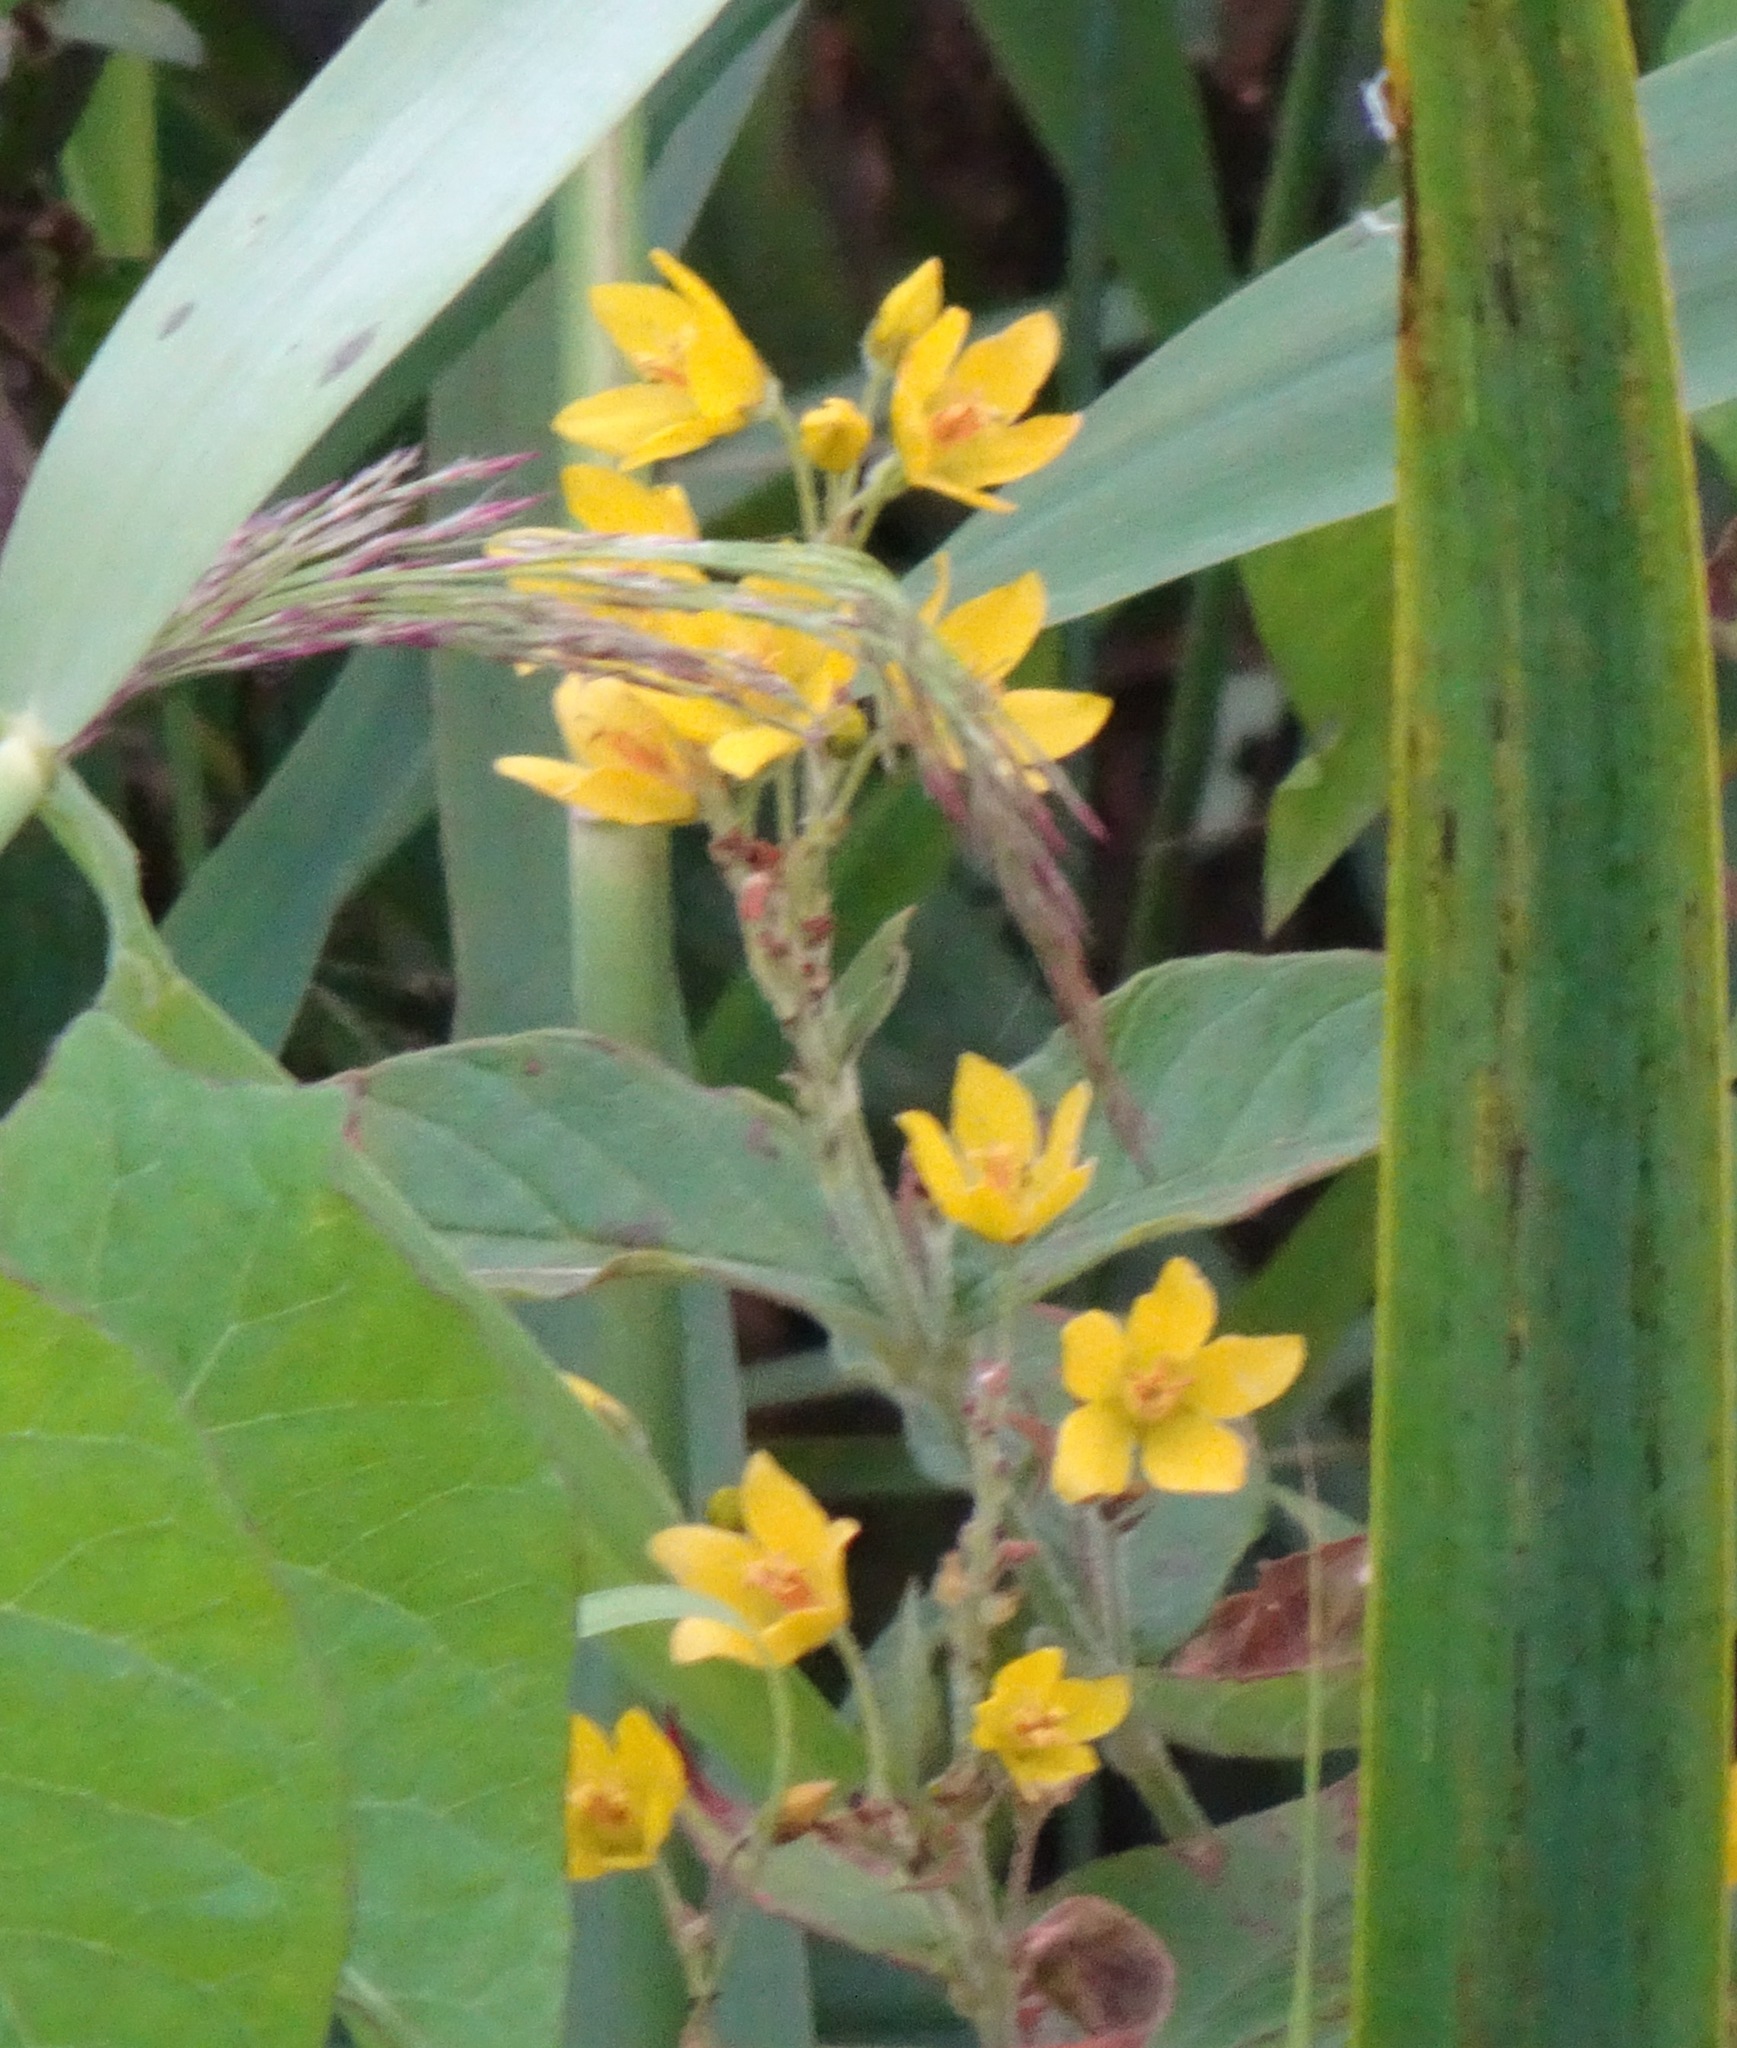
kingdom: Plantae
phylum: Tracheophyta
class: Magnoliopsida
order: Ericales
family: Primulaceae
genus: Lysimachia
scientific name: Lysimachia vulgaris
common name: Yellow loosestrife
